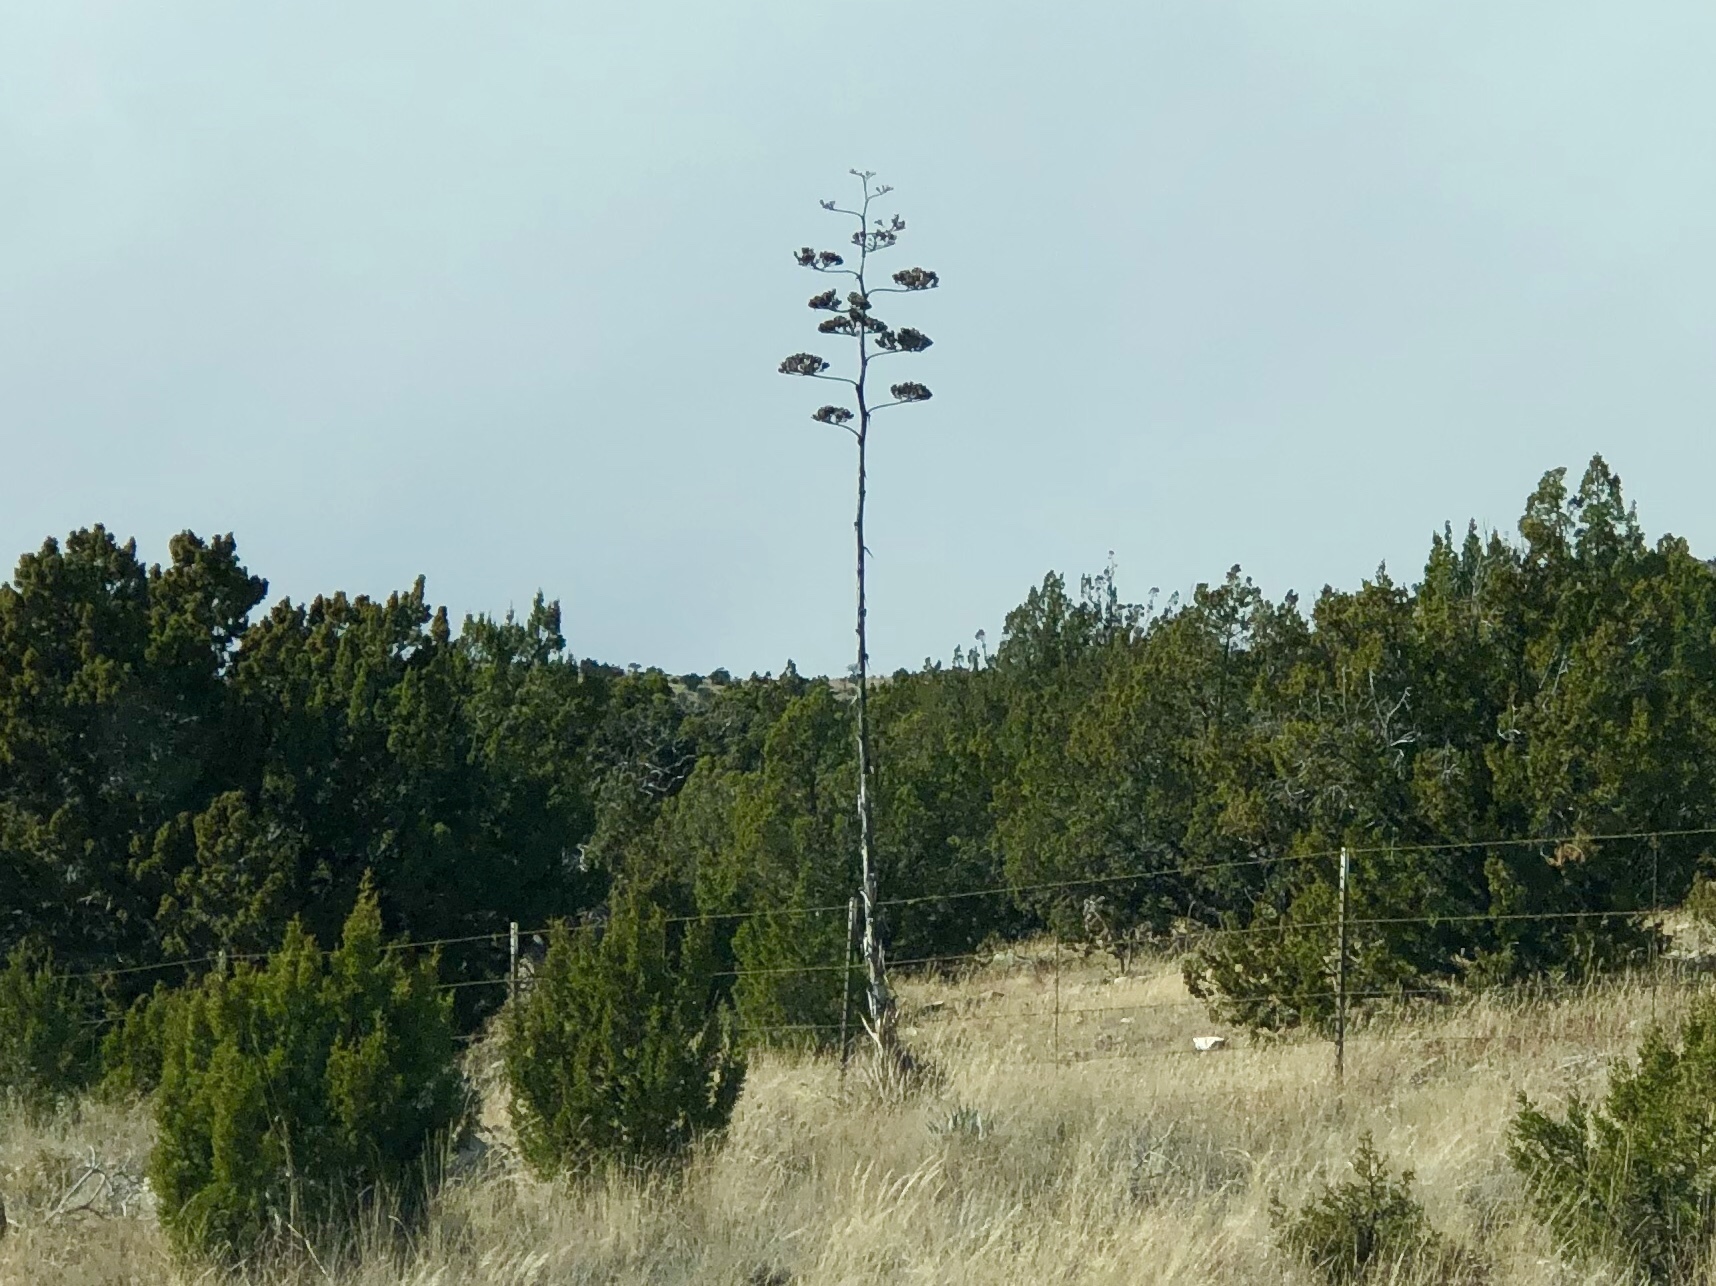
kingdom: Plantae
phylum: Tracheophyta
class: Liliopsida
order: Asparagales
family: Asparagaceae
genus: Agave
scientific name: Agave parryi
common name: Parry's agave
